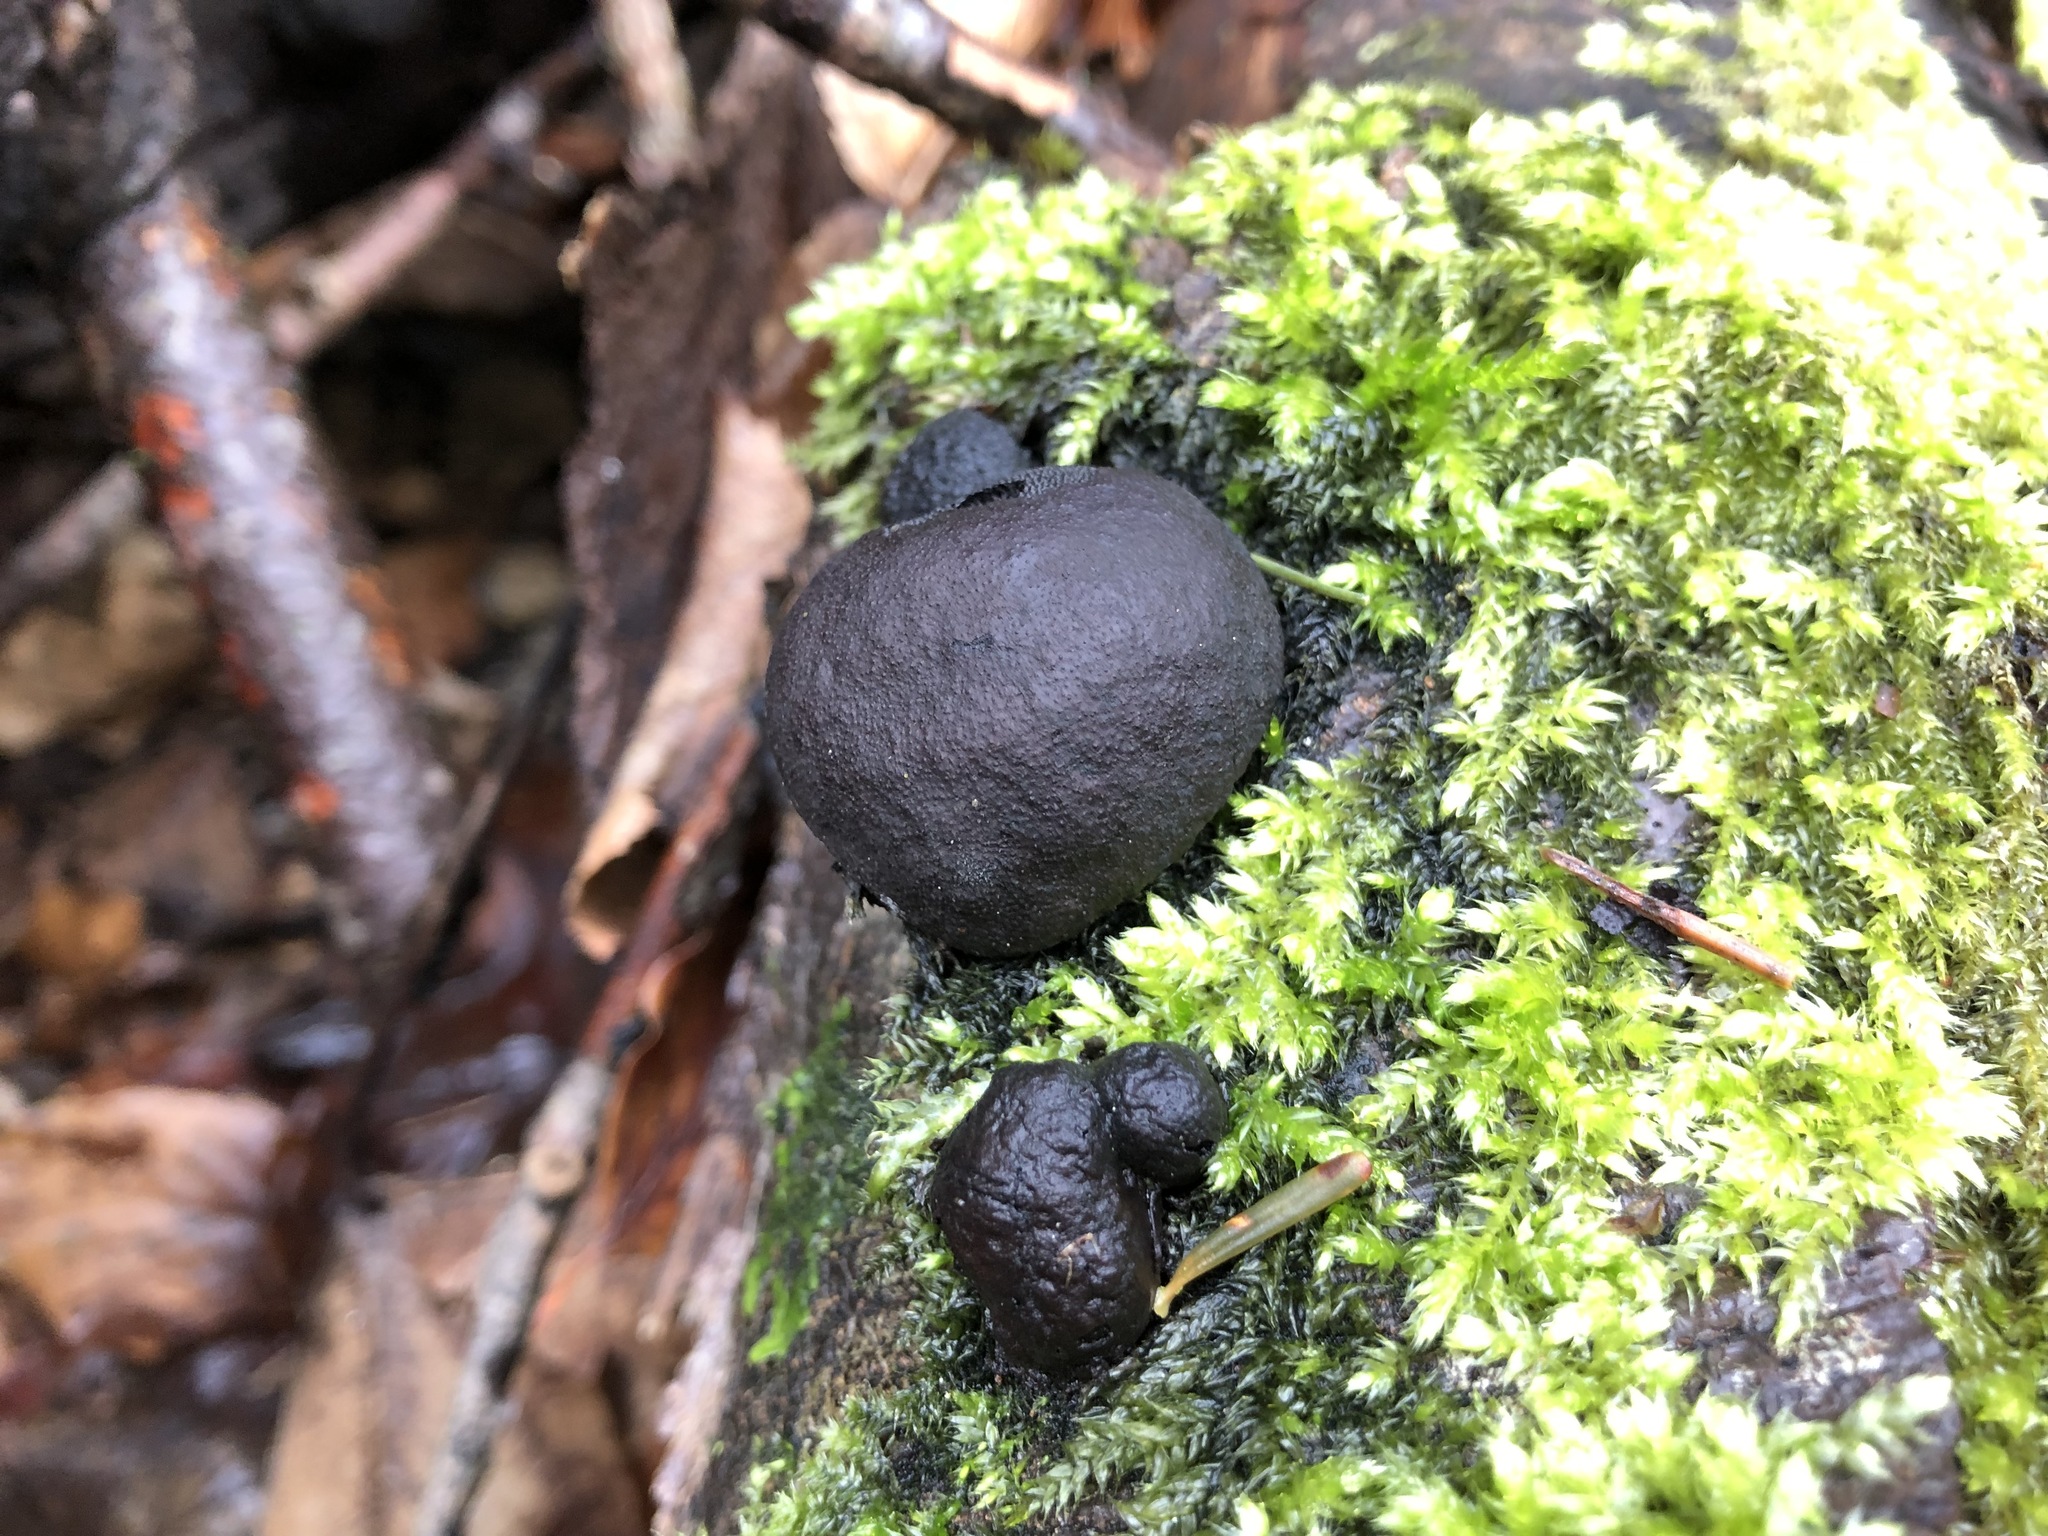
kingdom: Fungi
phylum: Ascomycota
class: Sordariomycetes
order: Xylariales
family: Hypoxylaceae
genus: Daldinia
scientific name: Daldinia concentrica
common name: Cramp balls
